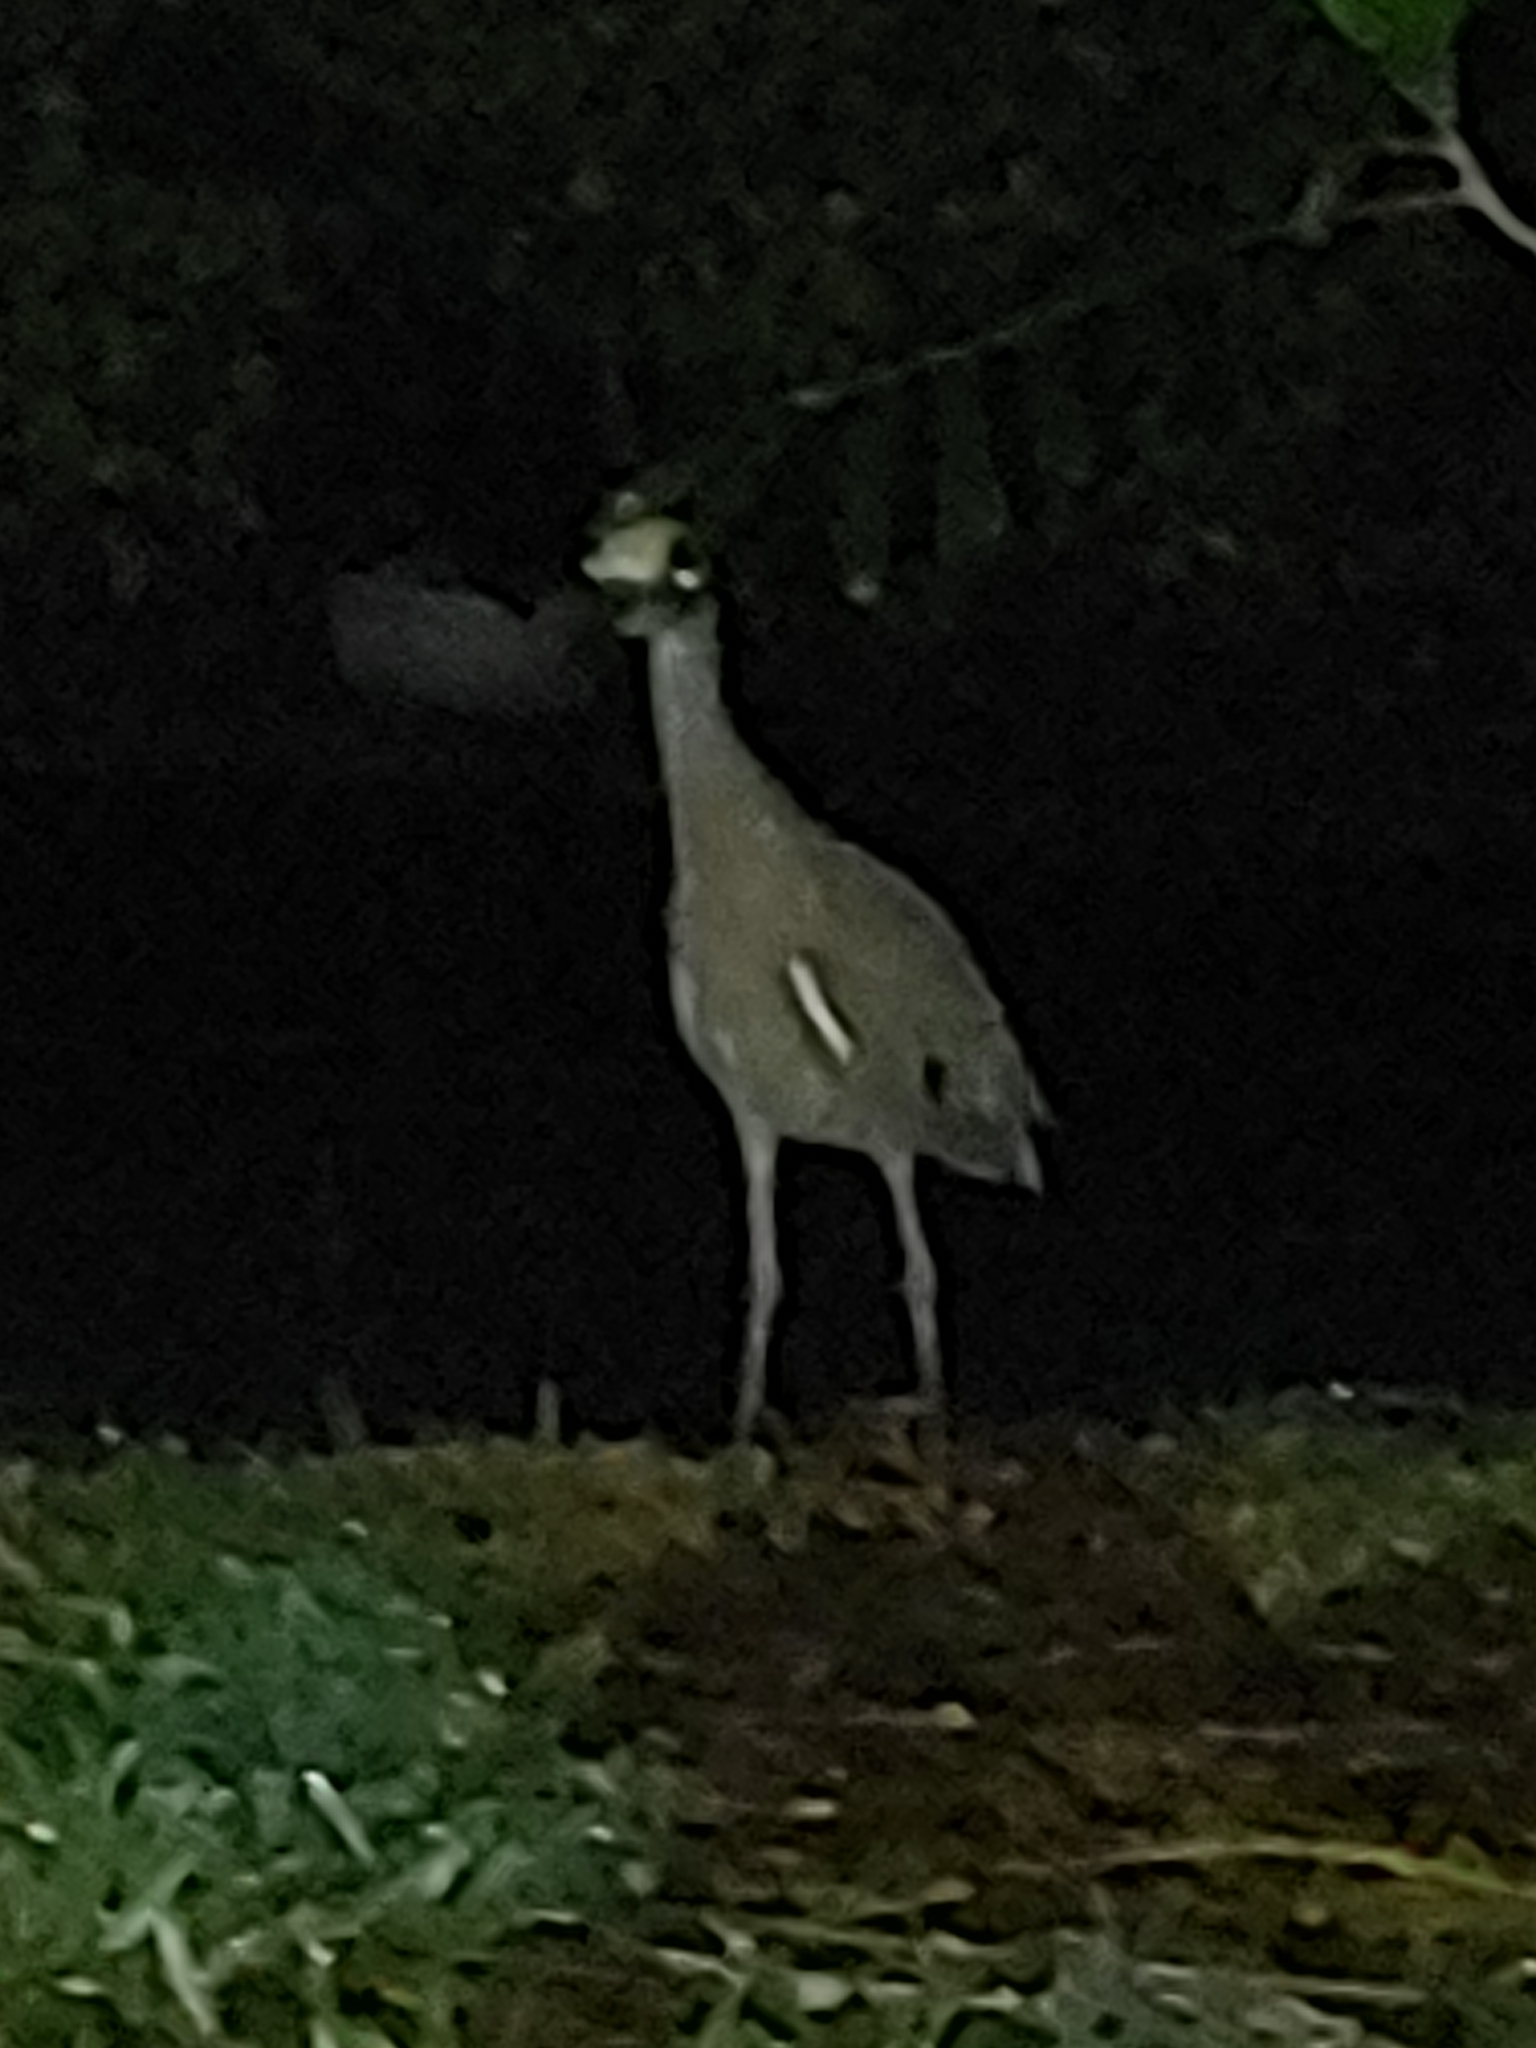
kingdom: Animalia
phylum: Chordata
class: Aves
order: Pelecaniformes
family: Ardeidae
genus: Nyctanassa
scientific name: Nyctanassa violacea
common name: Yellow-crowned night heron
